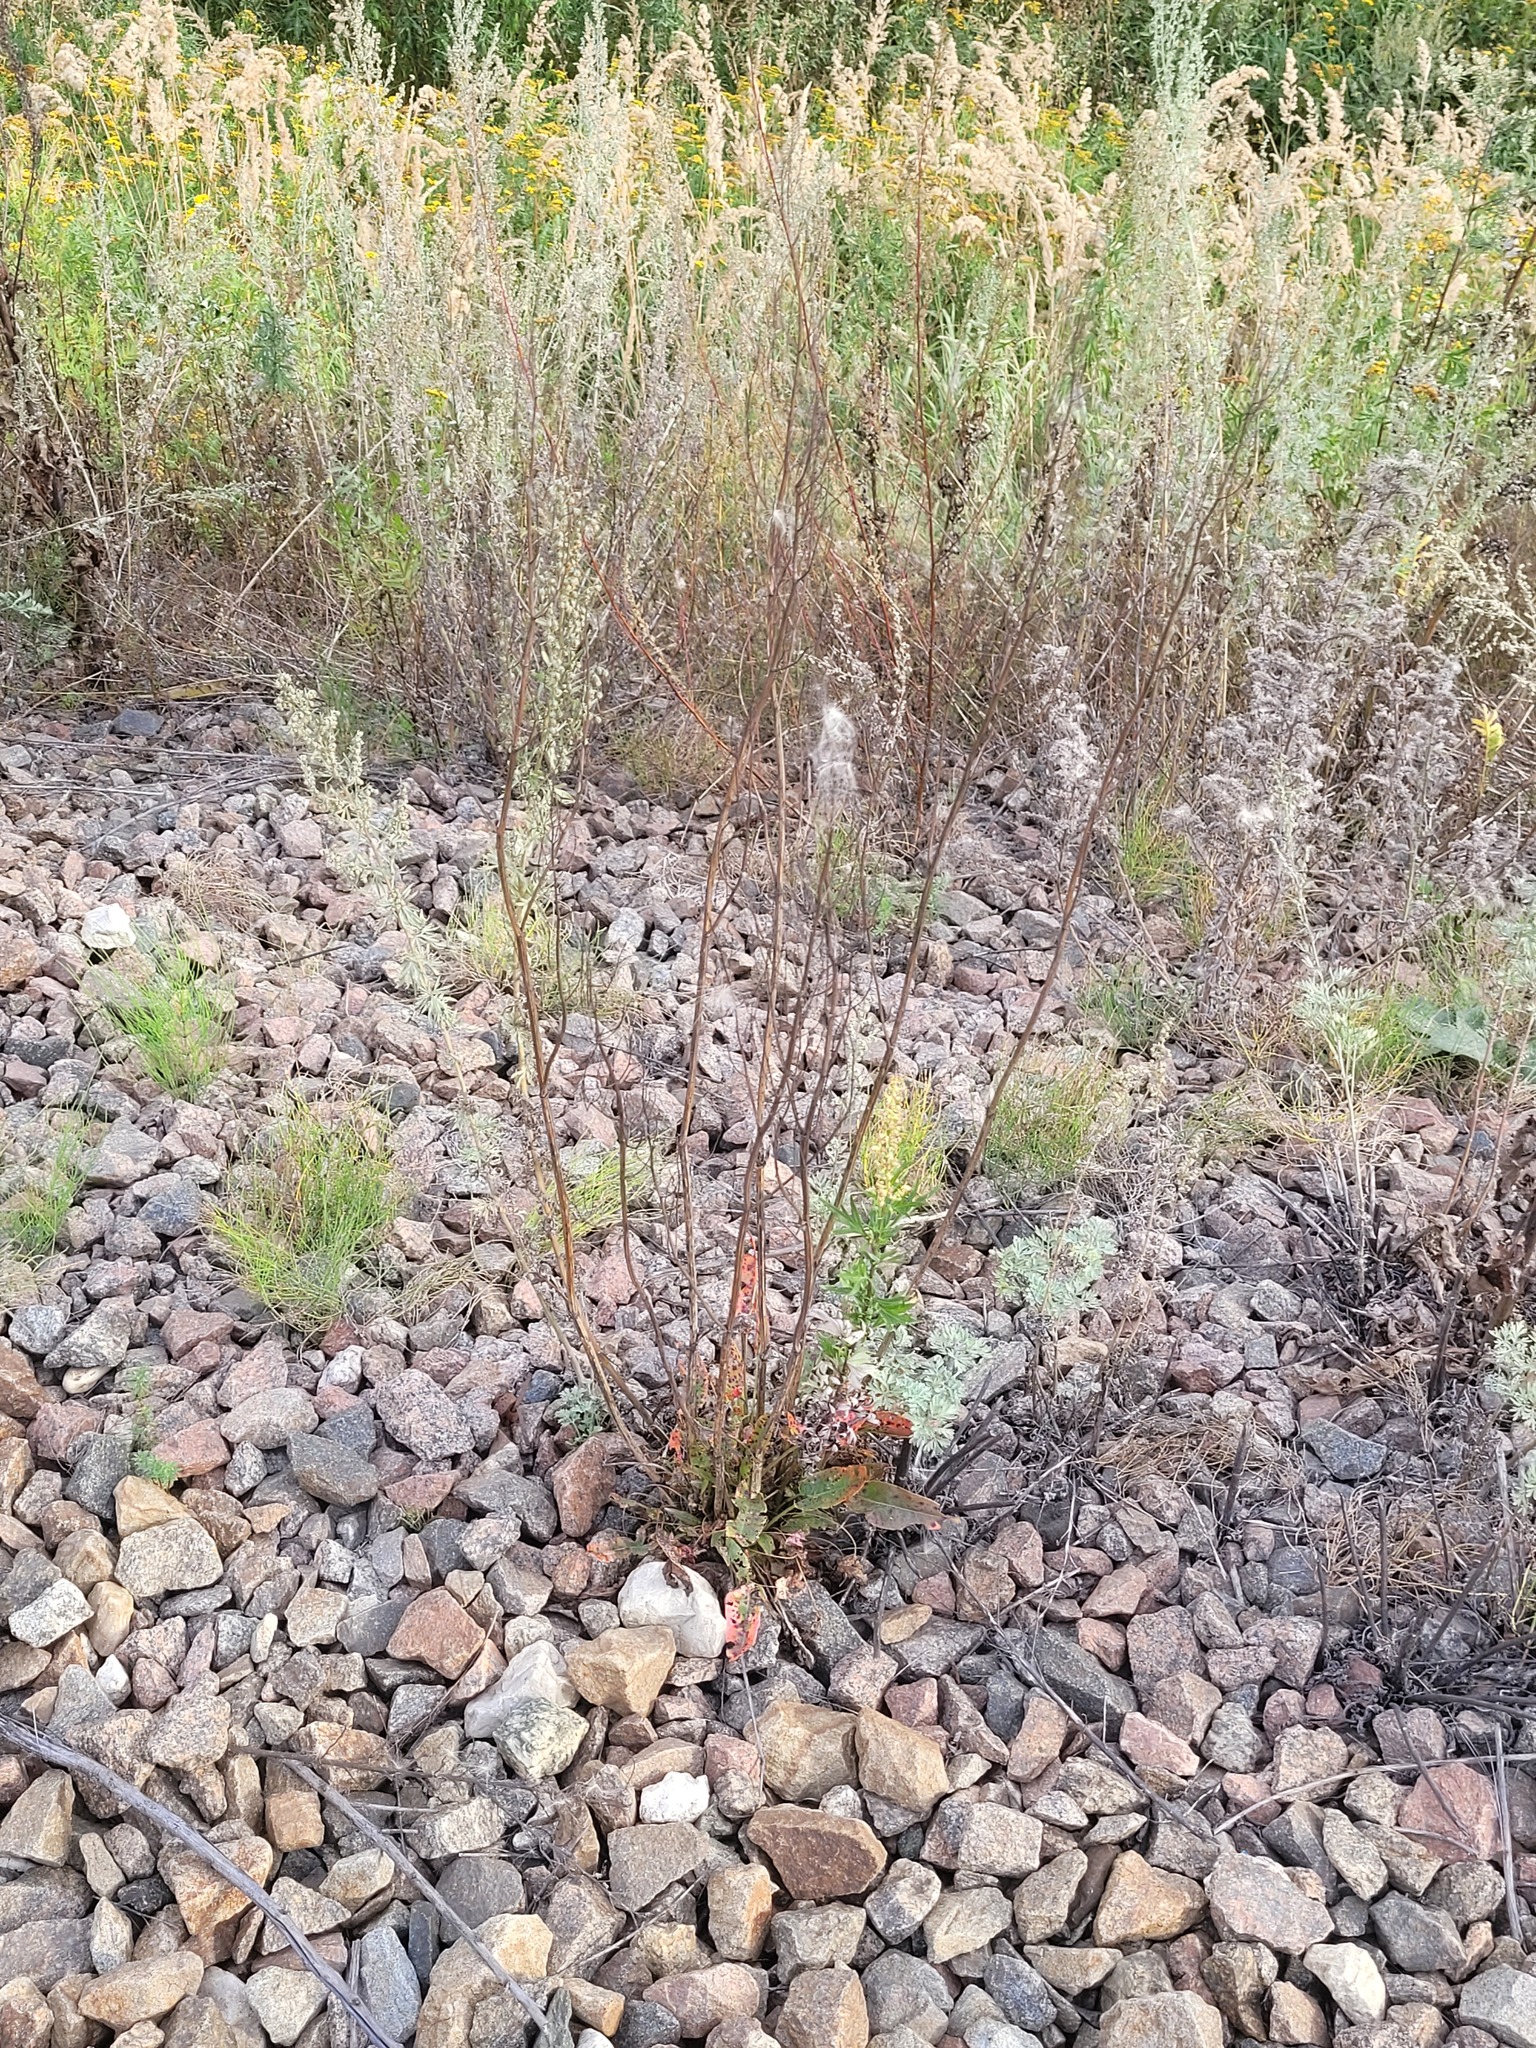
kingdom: Plantae
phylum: Tracheophyta
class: Magnoliopsida
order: Caryophyllales
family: Polygonaceae
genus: Rumex
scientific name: Rumex thyrsiflorus
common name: Garden sorrel
